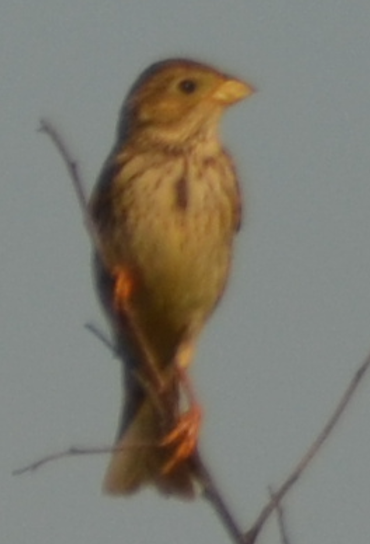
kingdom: Animalia
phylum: Chordata
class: Aves
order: Passeriformes
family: Emberizidae
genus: Emberiza
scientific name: Emberiza calandra
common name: Corn bunting
